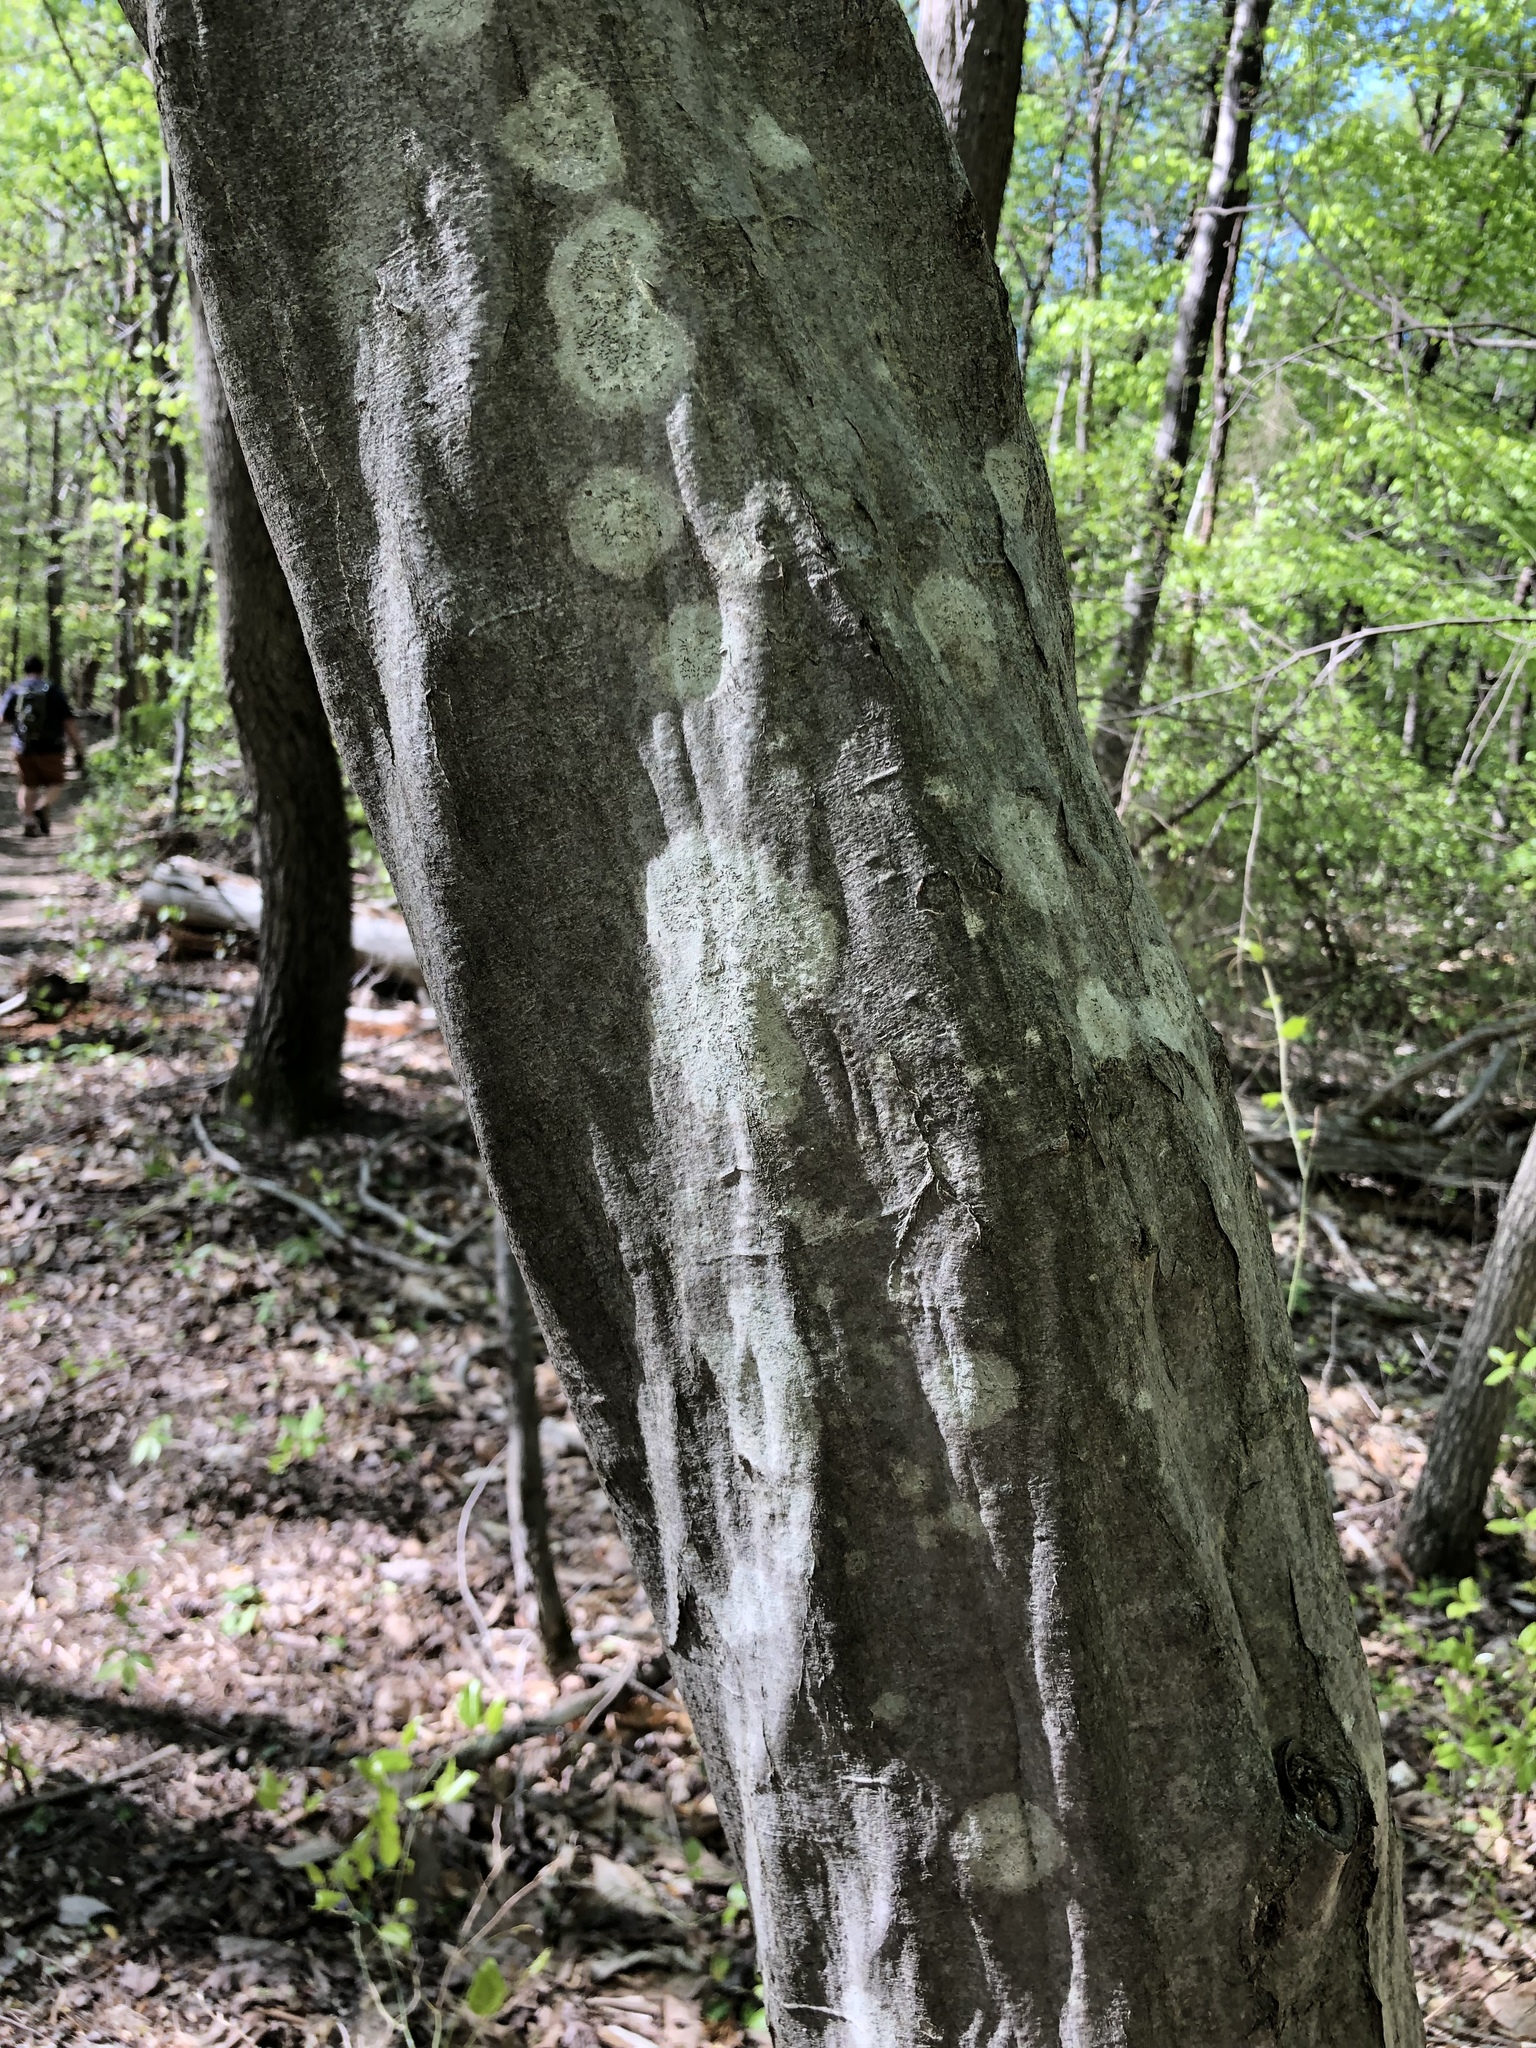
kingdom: Plantae
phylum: Tracheophyta
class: Magnoliopsida
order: Fagales
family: Betulaceae
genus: Carpinus
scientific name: Carpinus caroliniana
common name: American hornbeam
